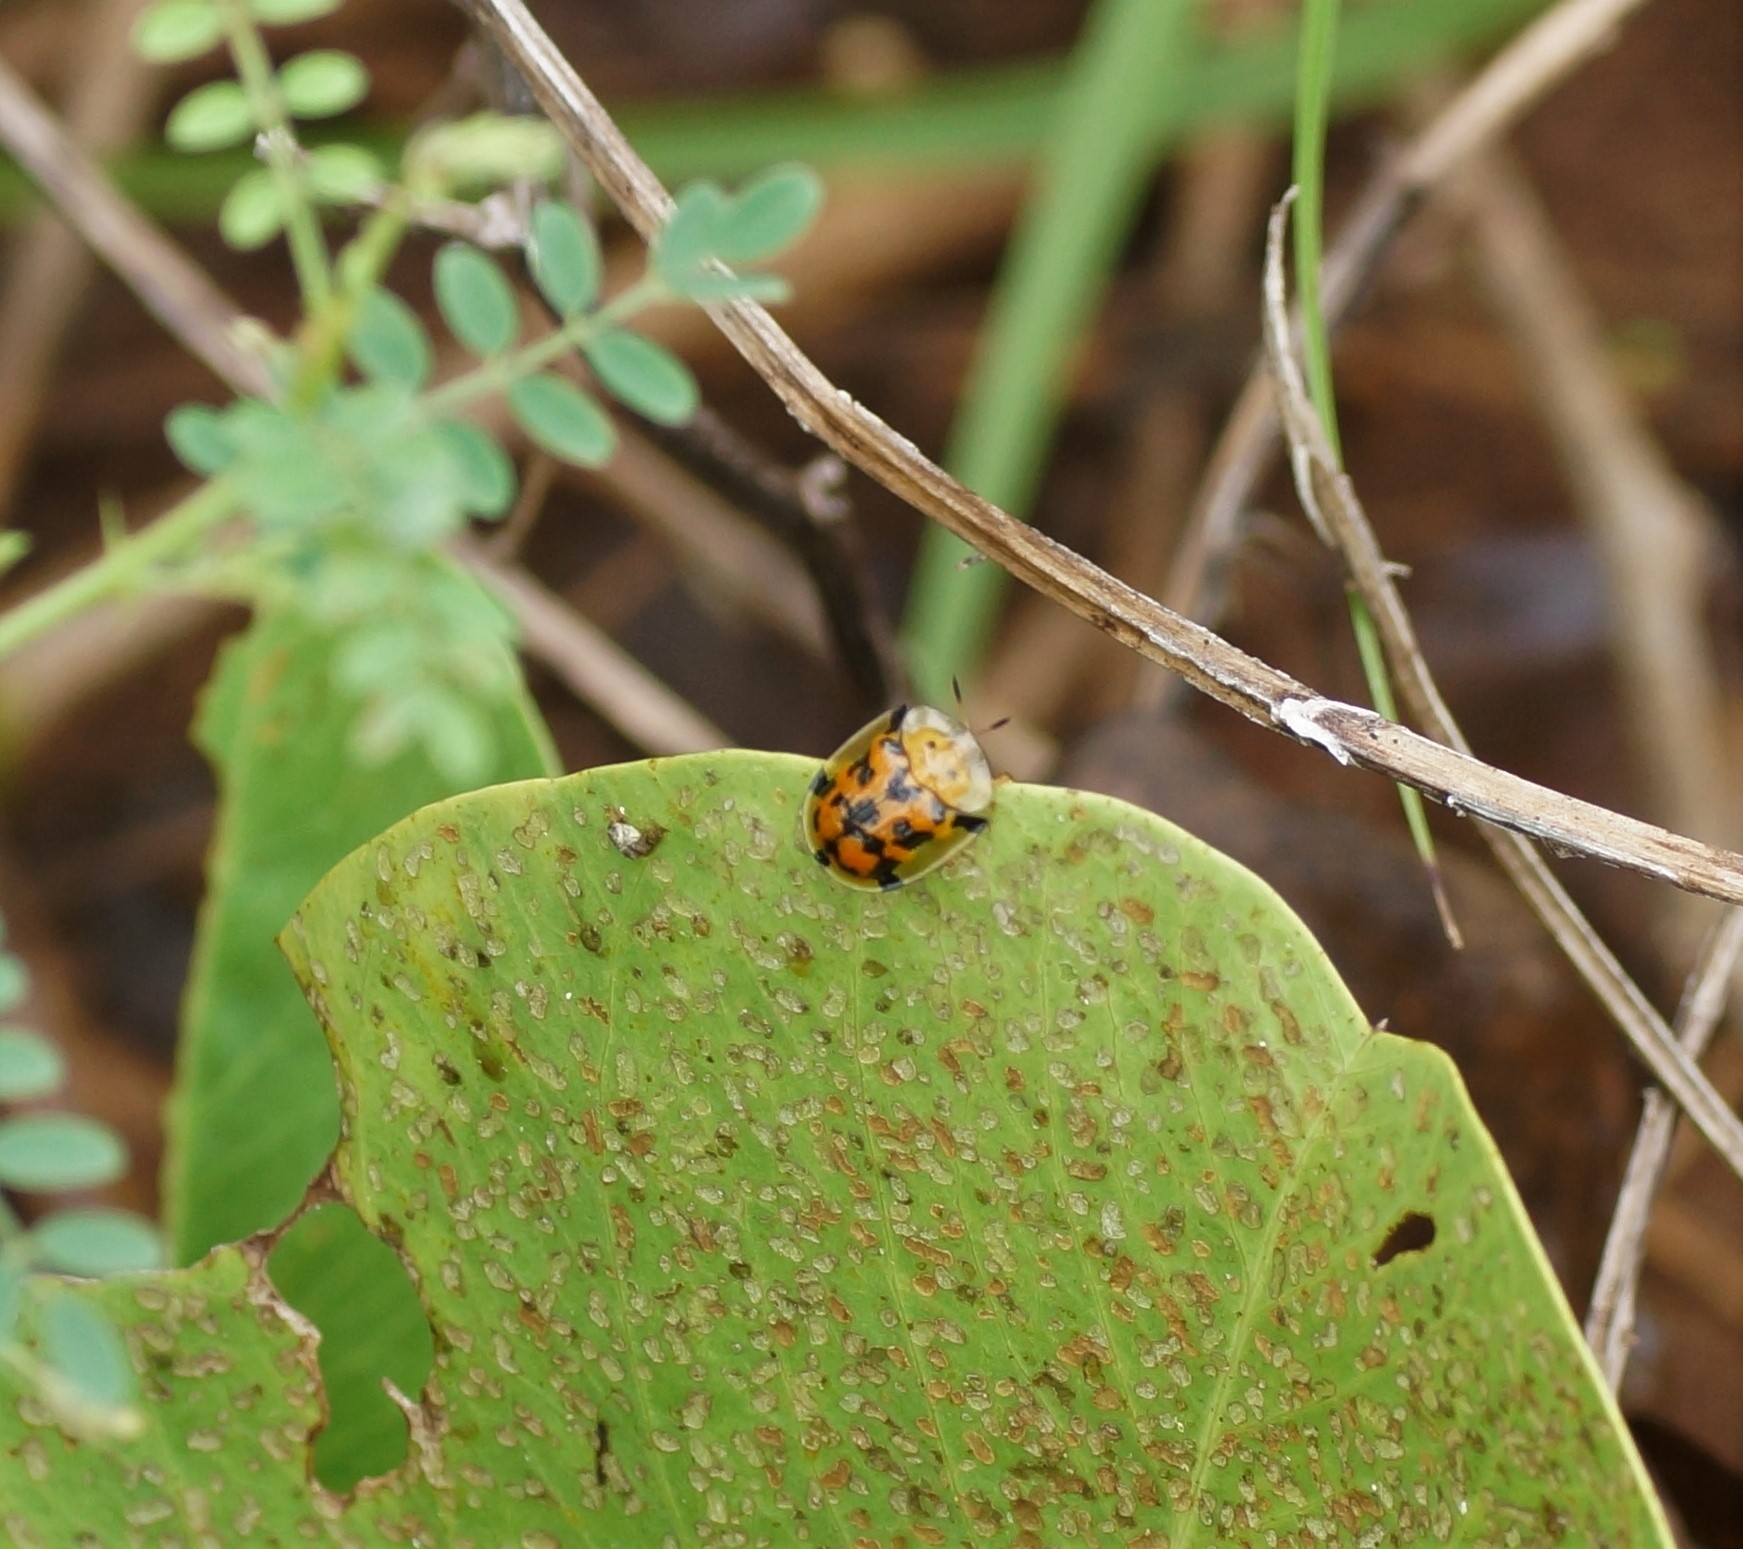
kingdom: Animalia
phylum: Arthropoda
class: Insecta
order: Coleoptera
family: Chrysomelidae
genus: Aspidimorpha
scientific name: Aspidimorpha deusta
